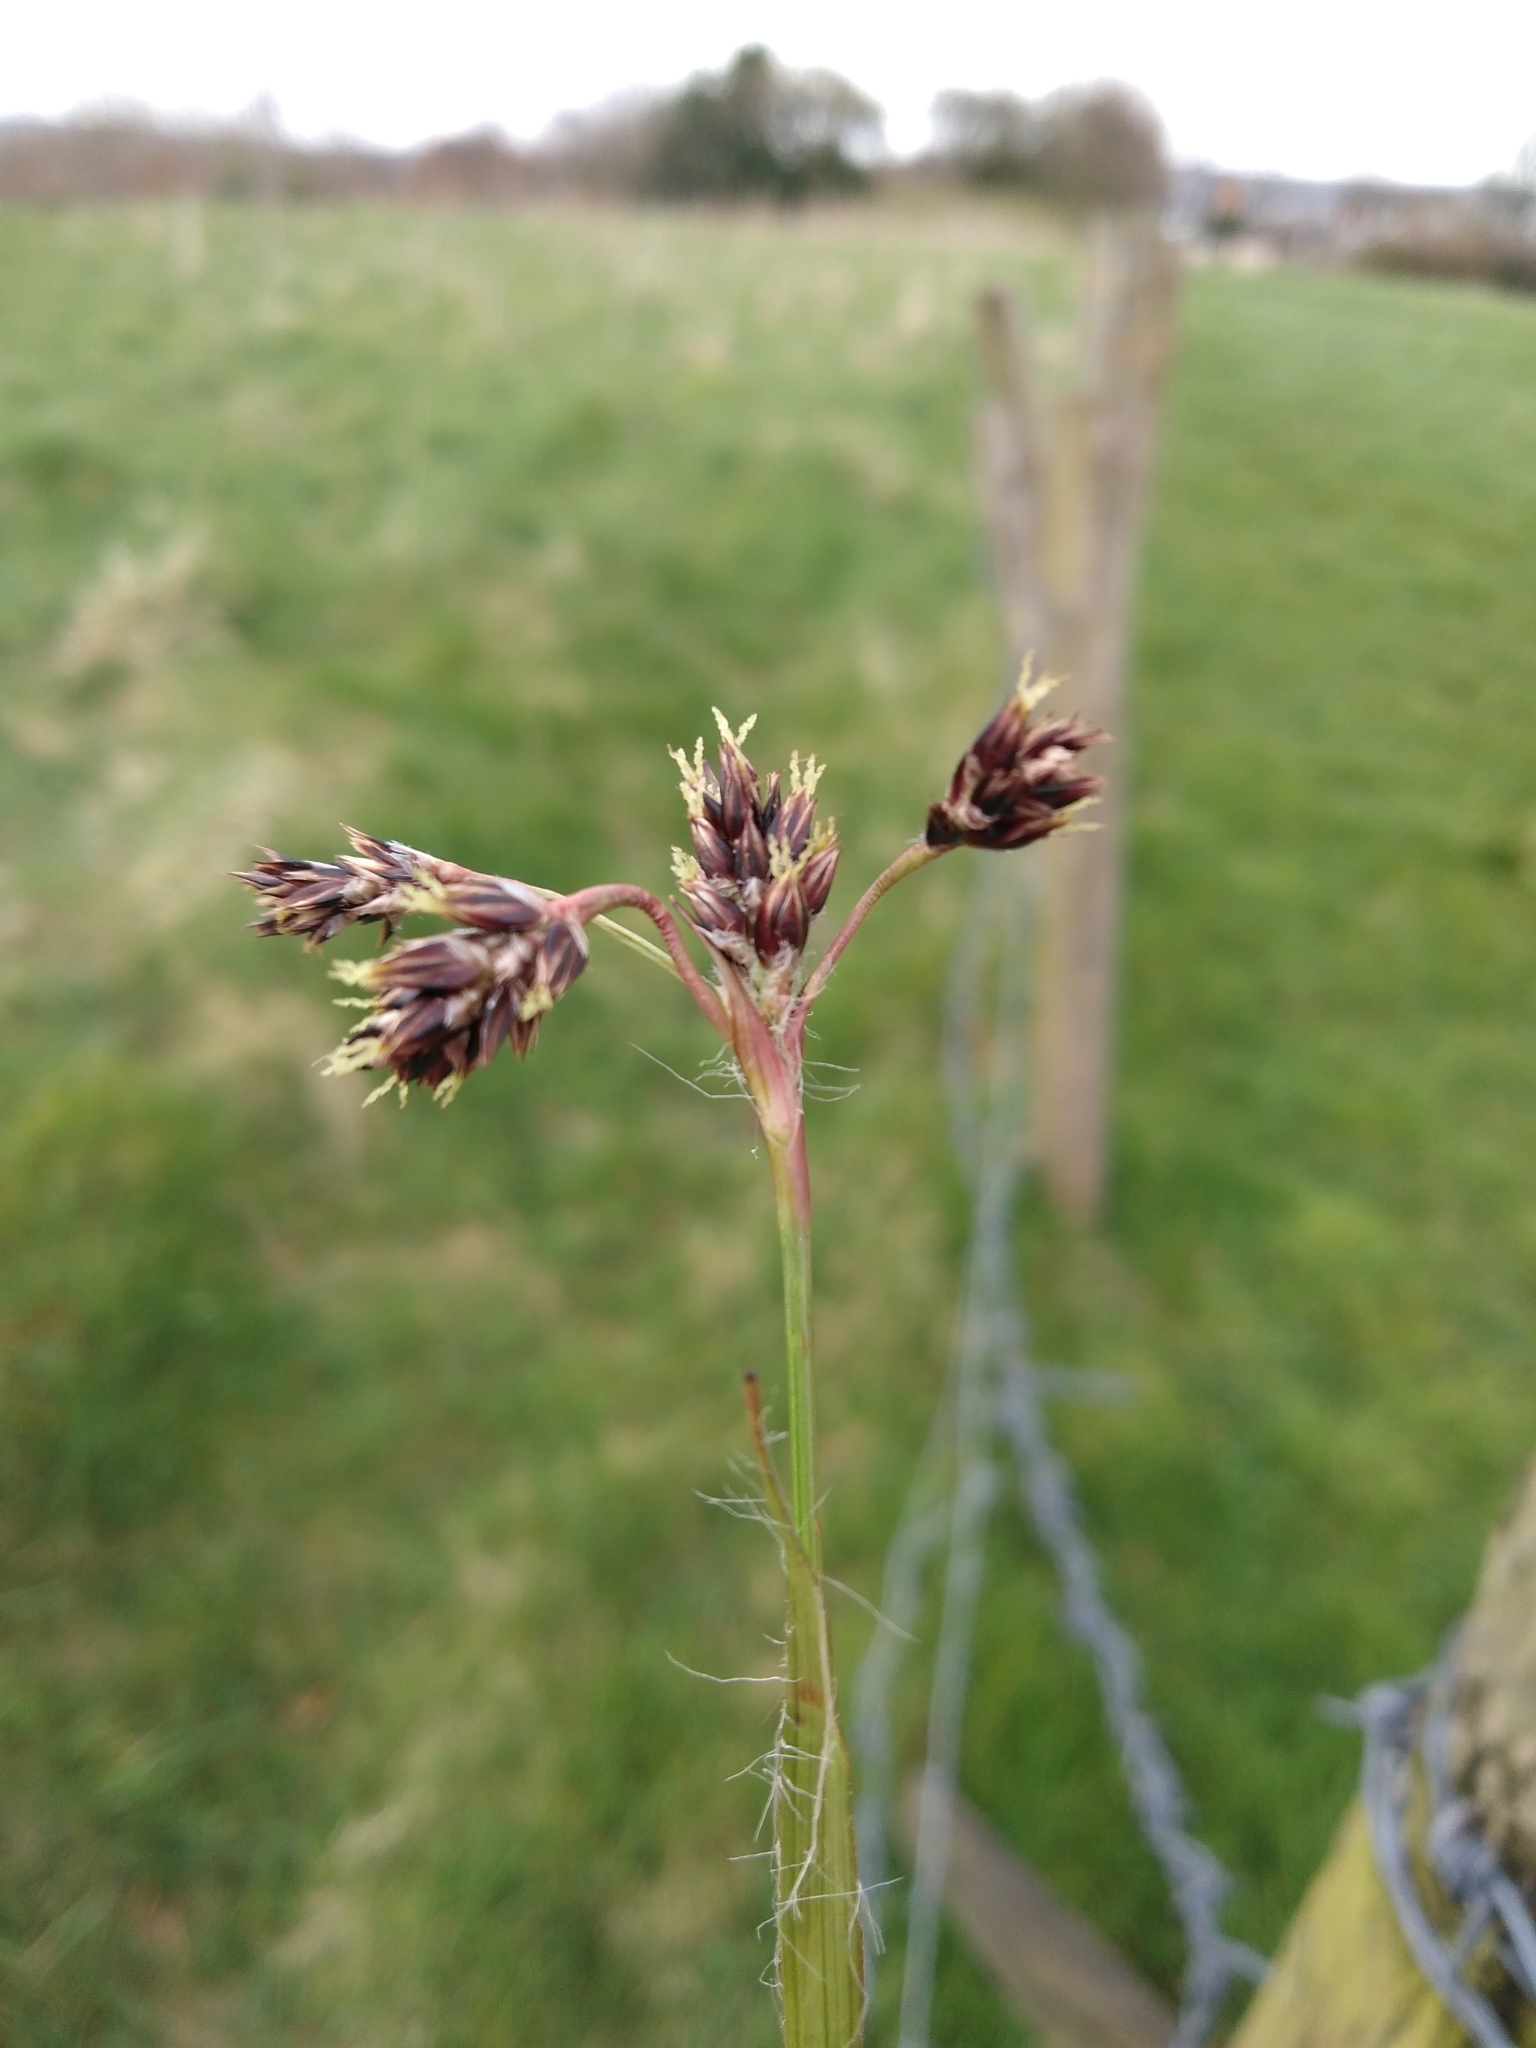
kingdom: Plantae
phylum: Tracheophyta
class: Liliopsida
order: Poales
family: Juncaceae
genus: Luzula
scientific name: Luzula campestris
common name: Field wood-rush
